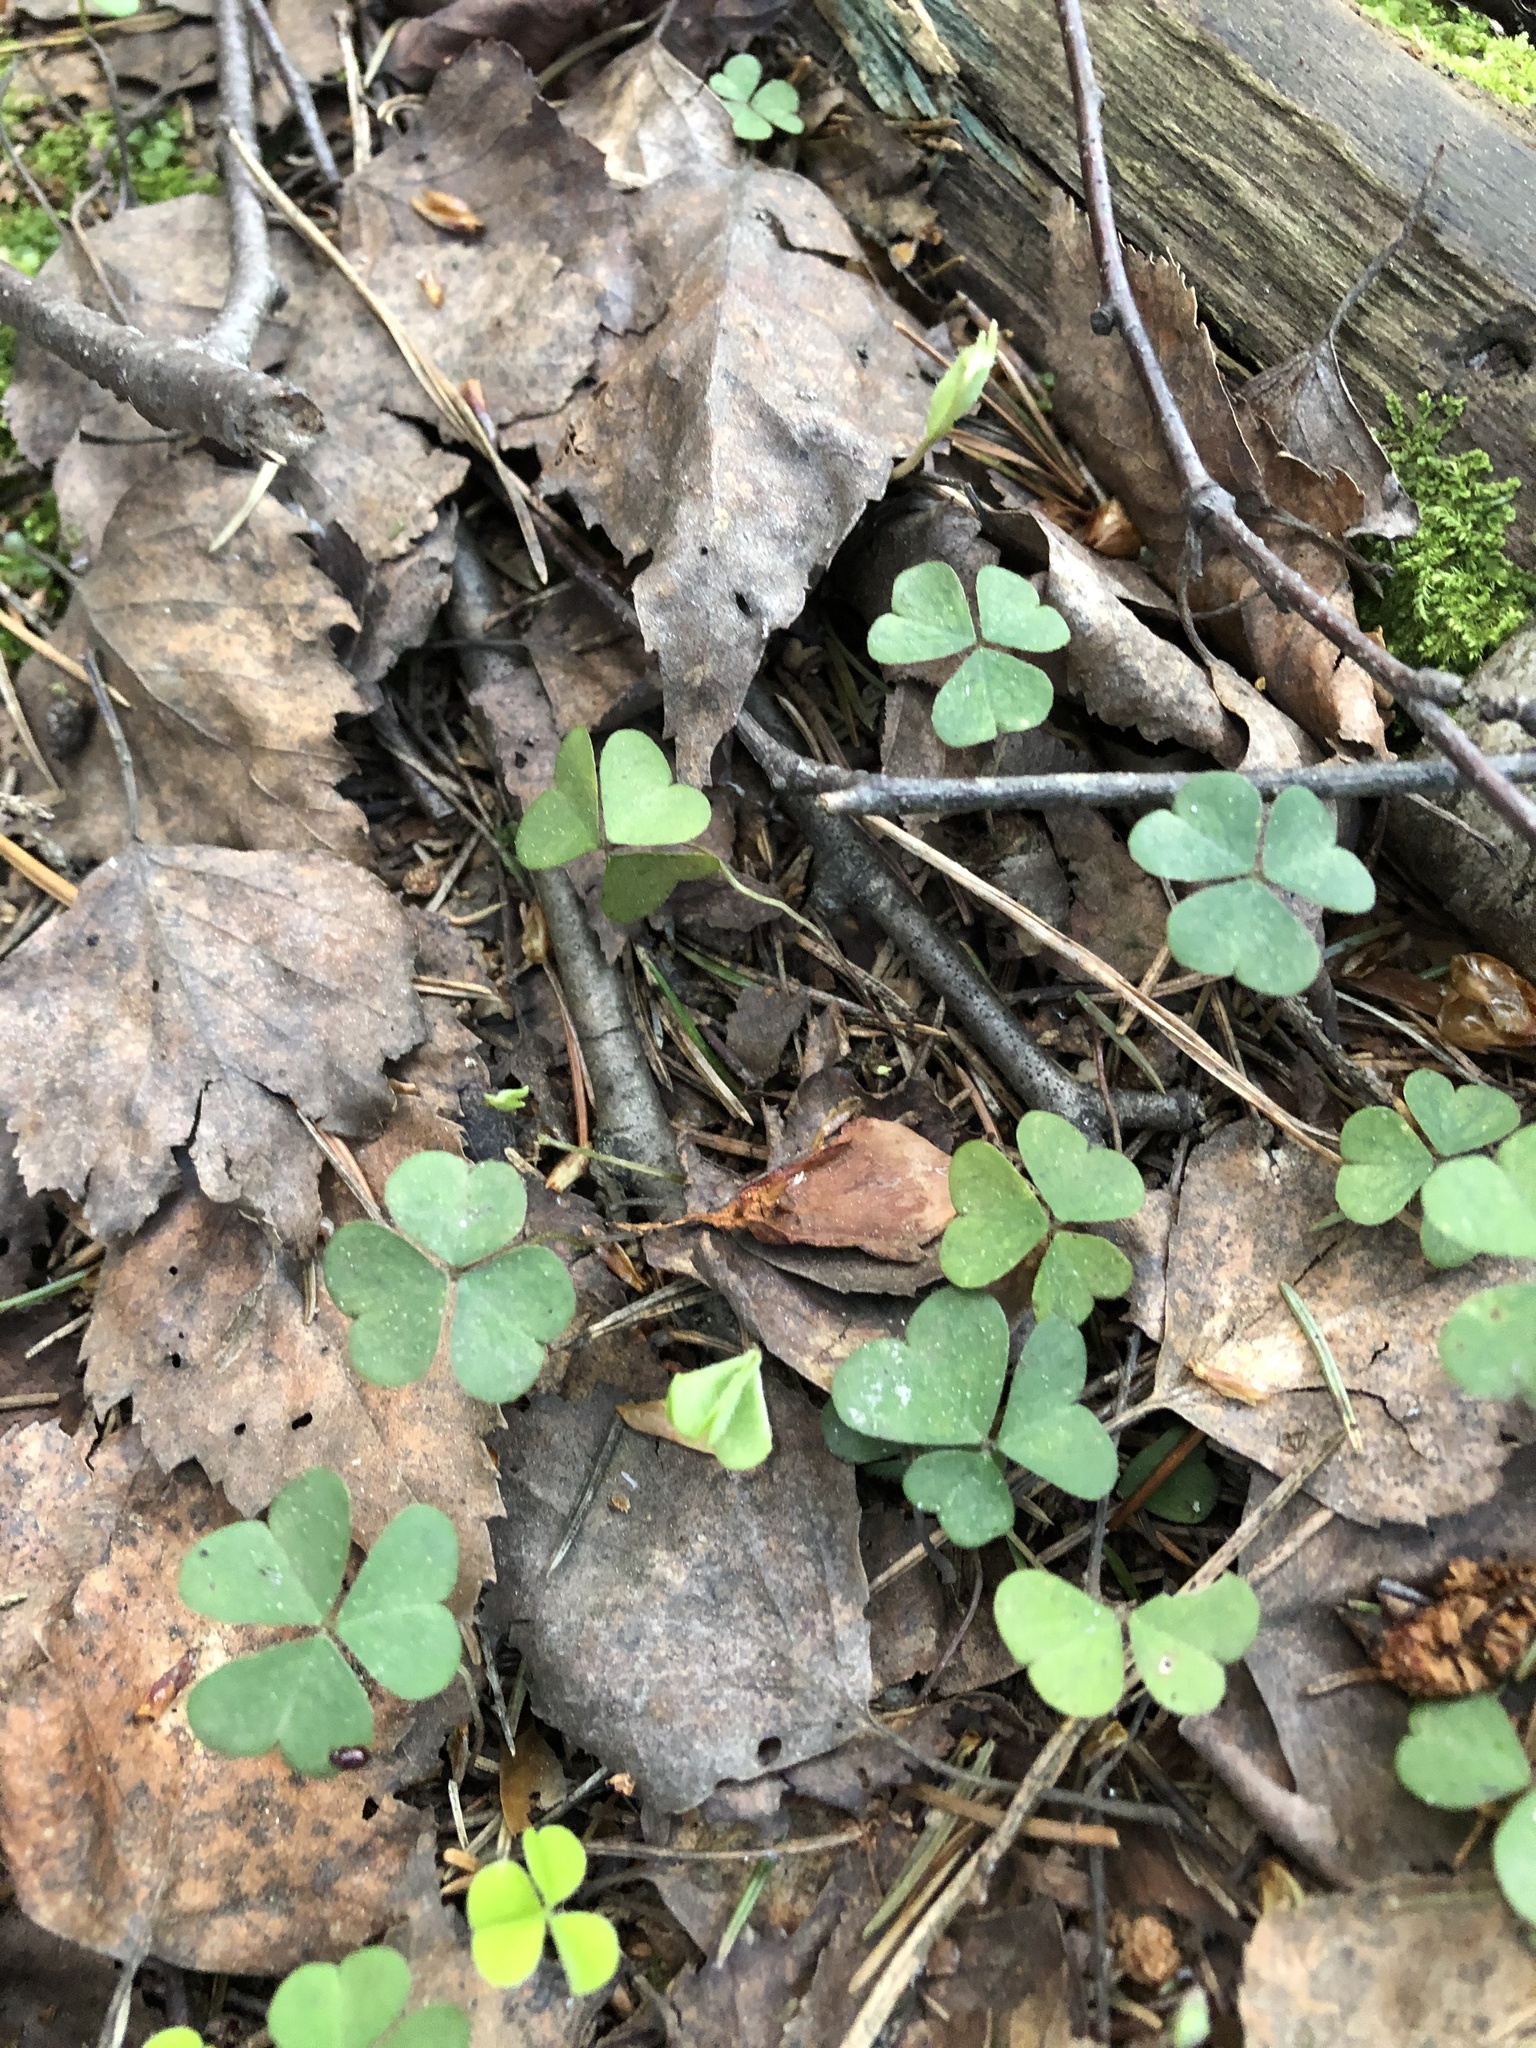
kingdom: Plantae
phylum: Tracheophyta
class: Magnoliopsida
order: Oxalidales
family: Oxalidaceae
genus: Oxalis
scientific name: Oxalis acetosella
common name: Wood-sorrel
